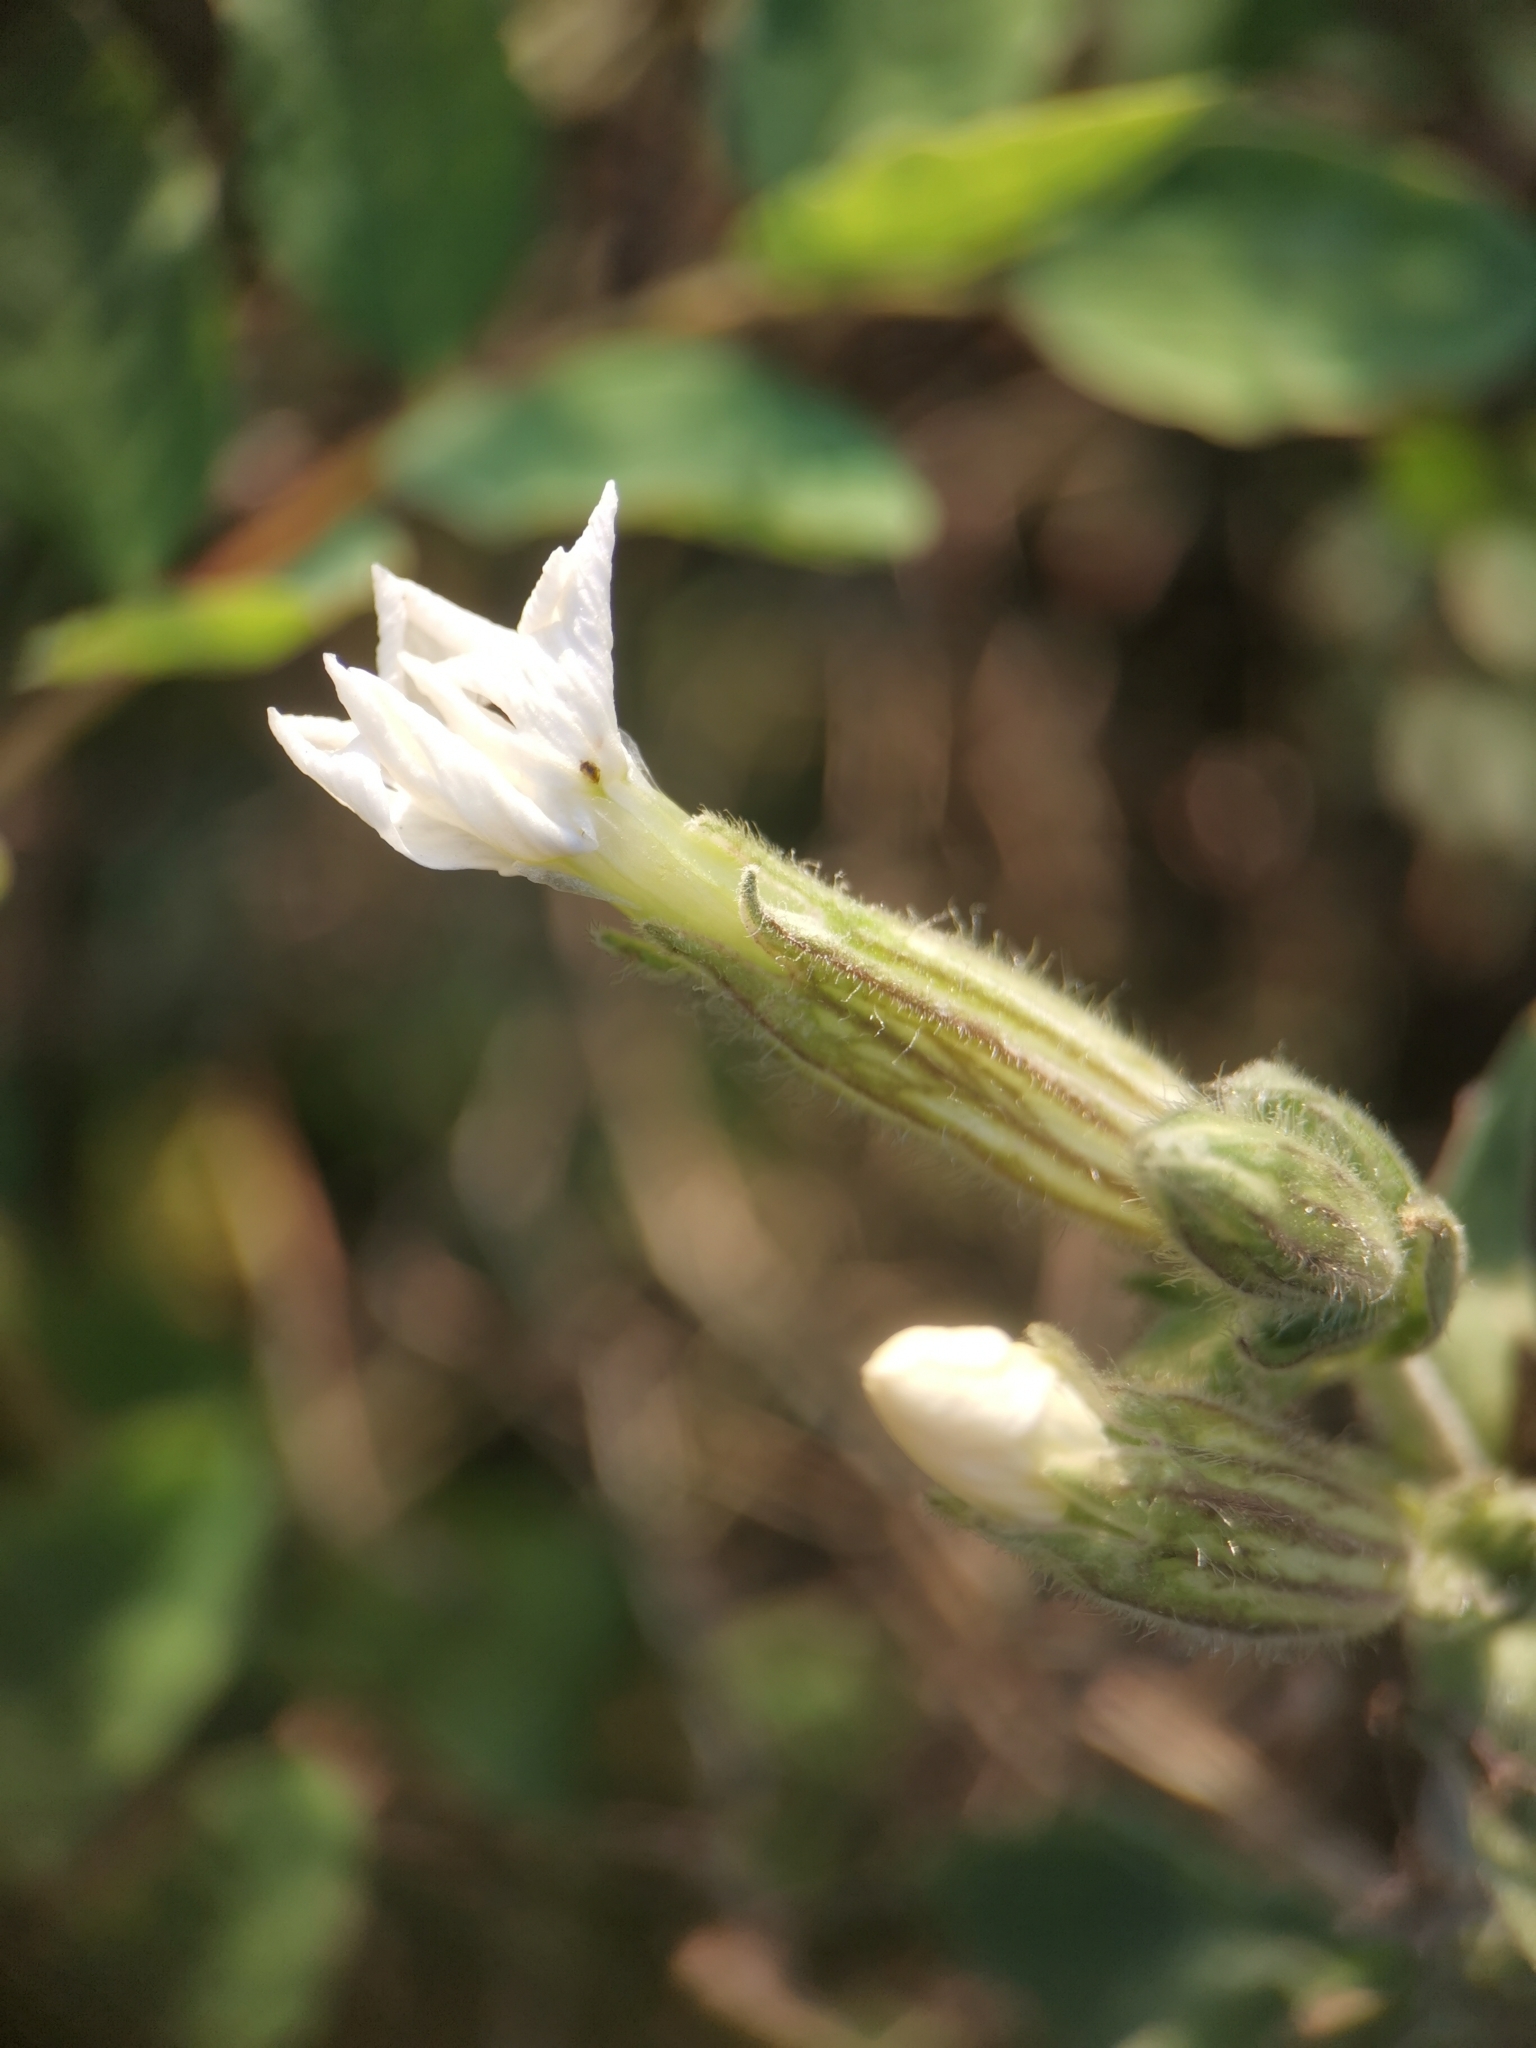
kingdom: Plantae
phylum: Tracheophyta
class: Magnoliopsida
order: Caryophyllales
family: Caryophyllaceae
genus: Silene
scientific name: Silene latifolia
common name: White campion
